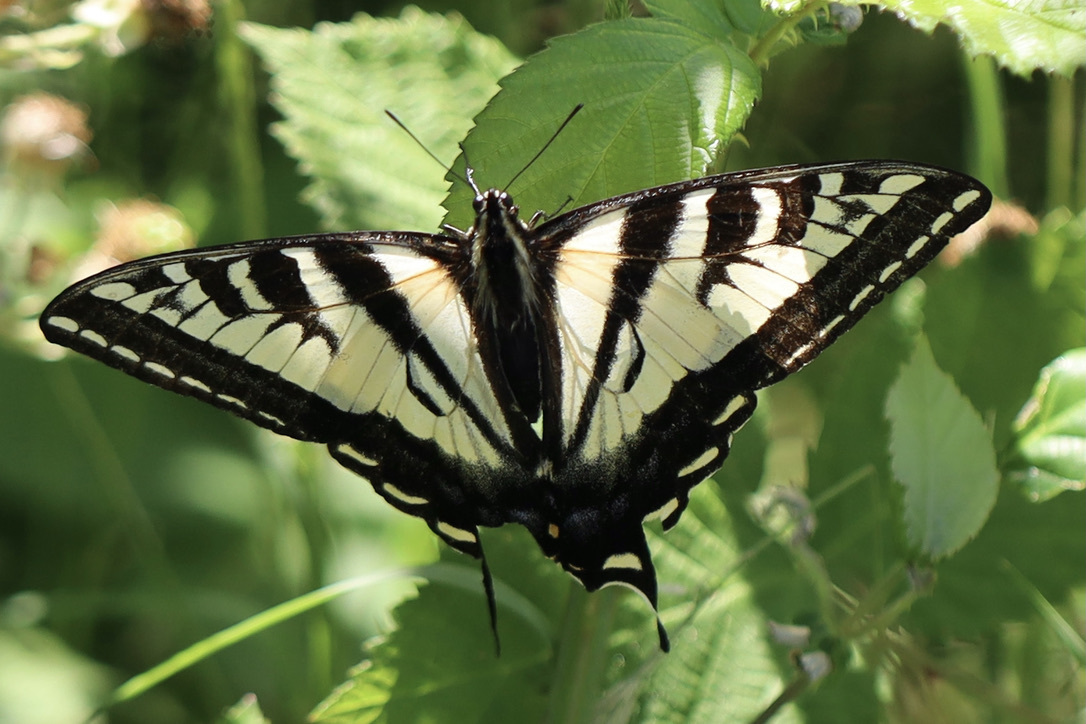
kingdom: Animalia
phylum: Arthropoda
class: Insecta
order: Lepidoptera
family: Papilionidae
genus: Papilio
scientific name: Papilio eurymedon
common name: Pale tiger swallowtail
